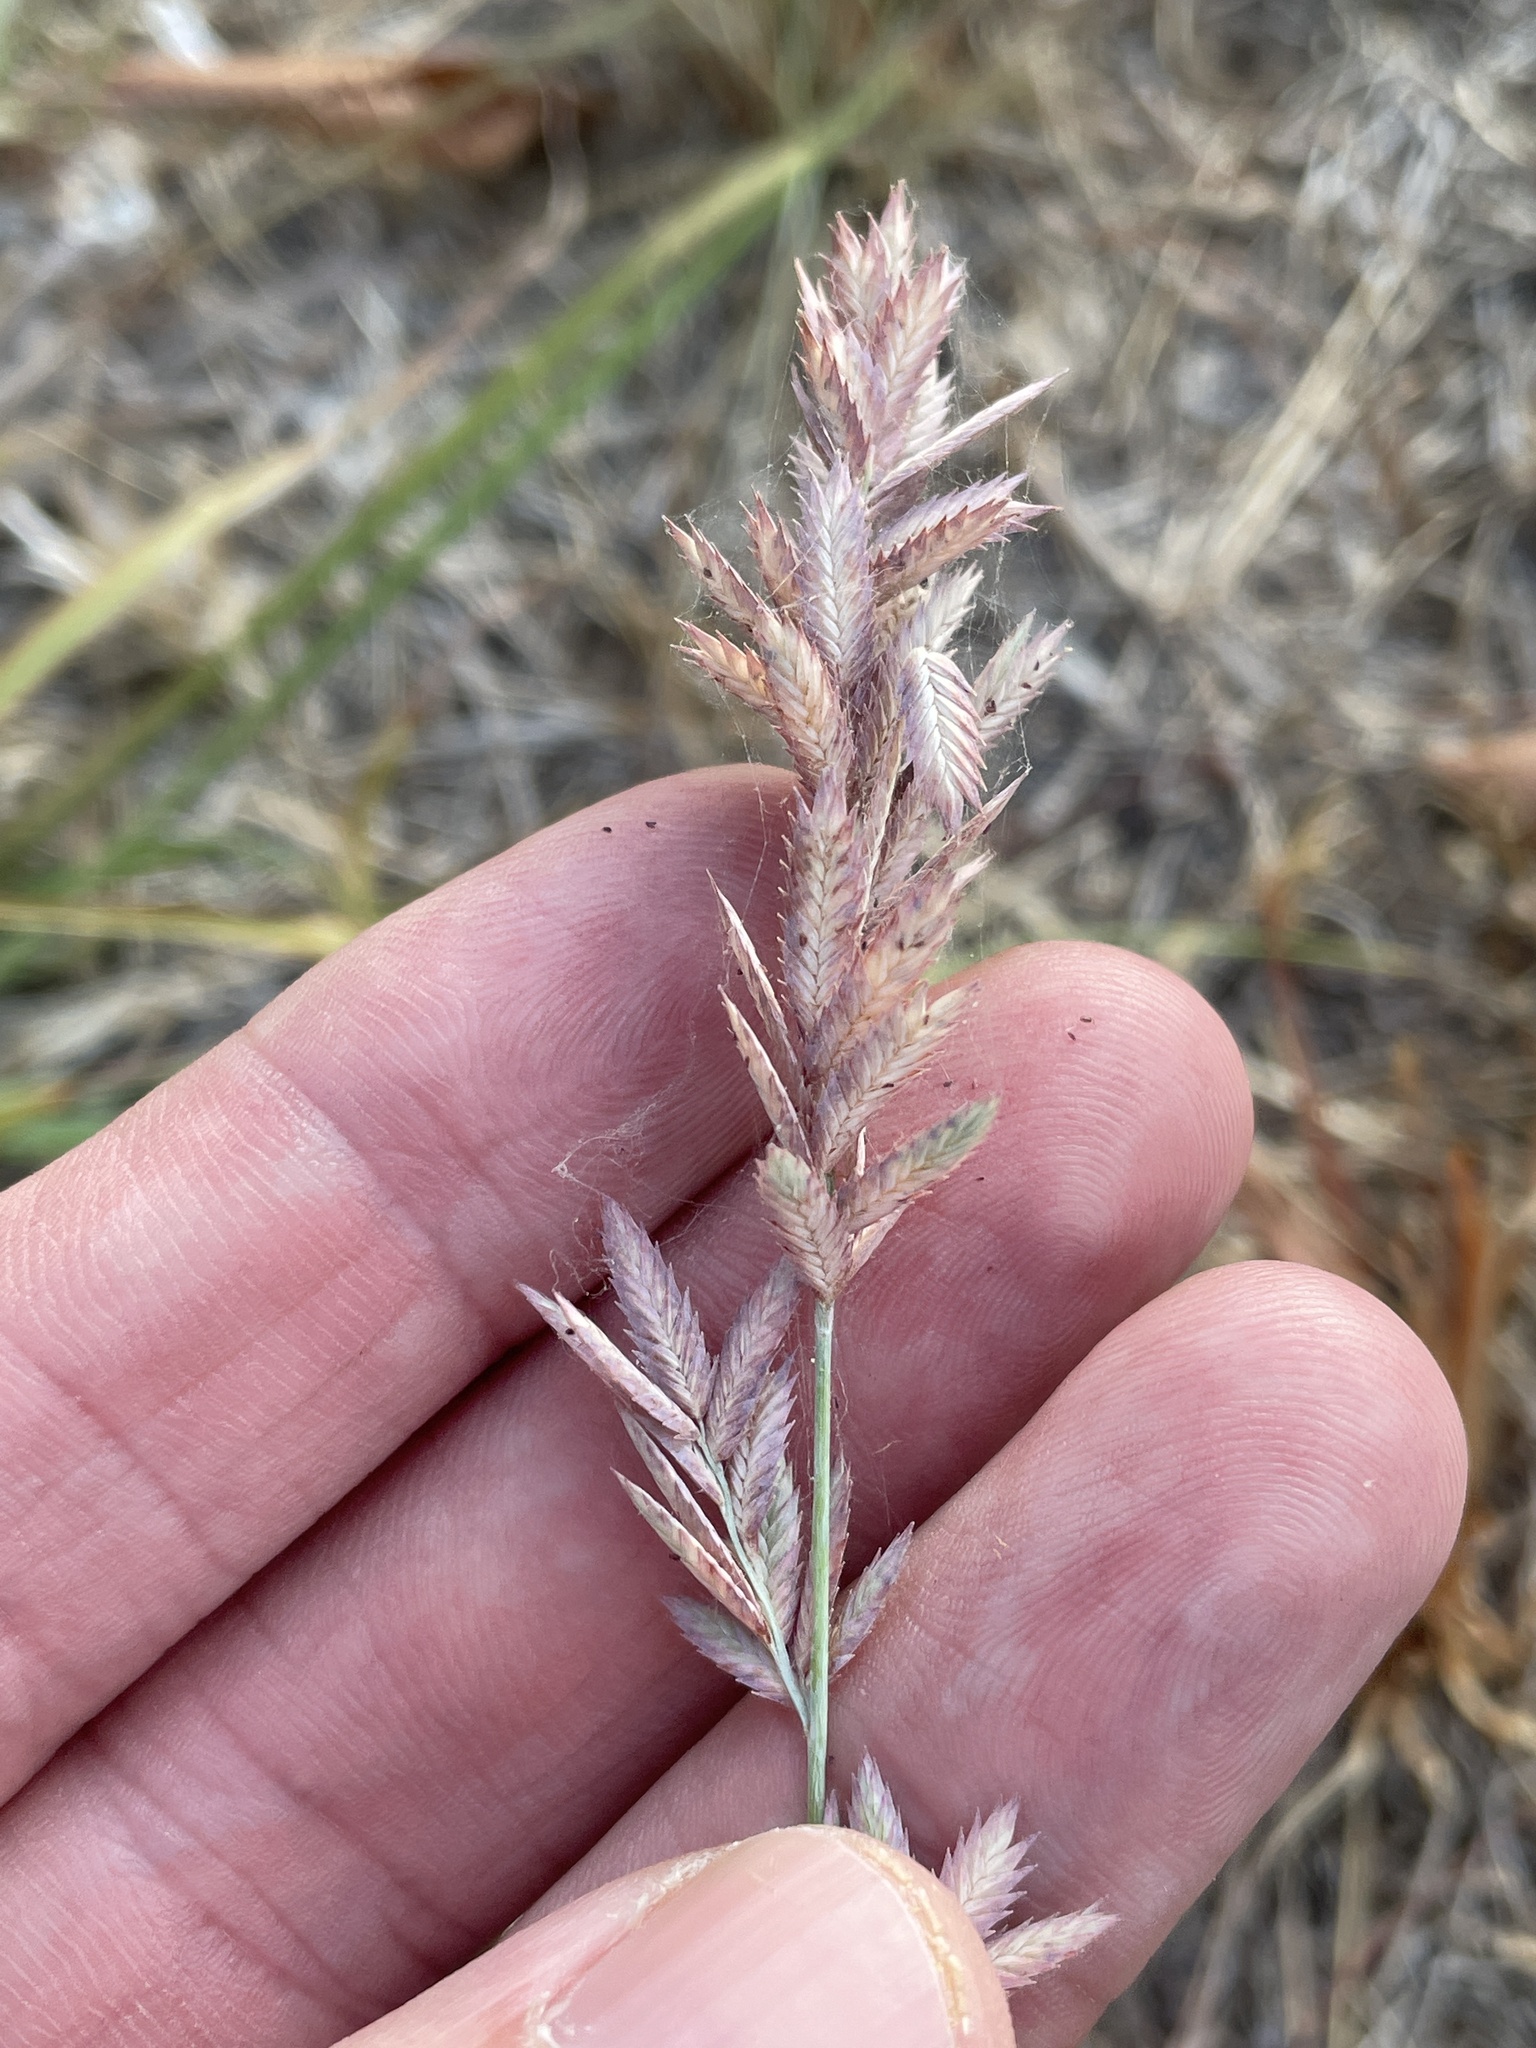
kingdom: Plantae
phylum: Tracheophyta
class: Liliopsida
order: Poales
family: Poaceae
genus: Eragrostis
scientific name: Eragrostis secundiflora
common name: Red love grass
